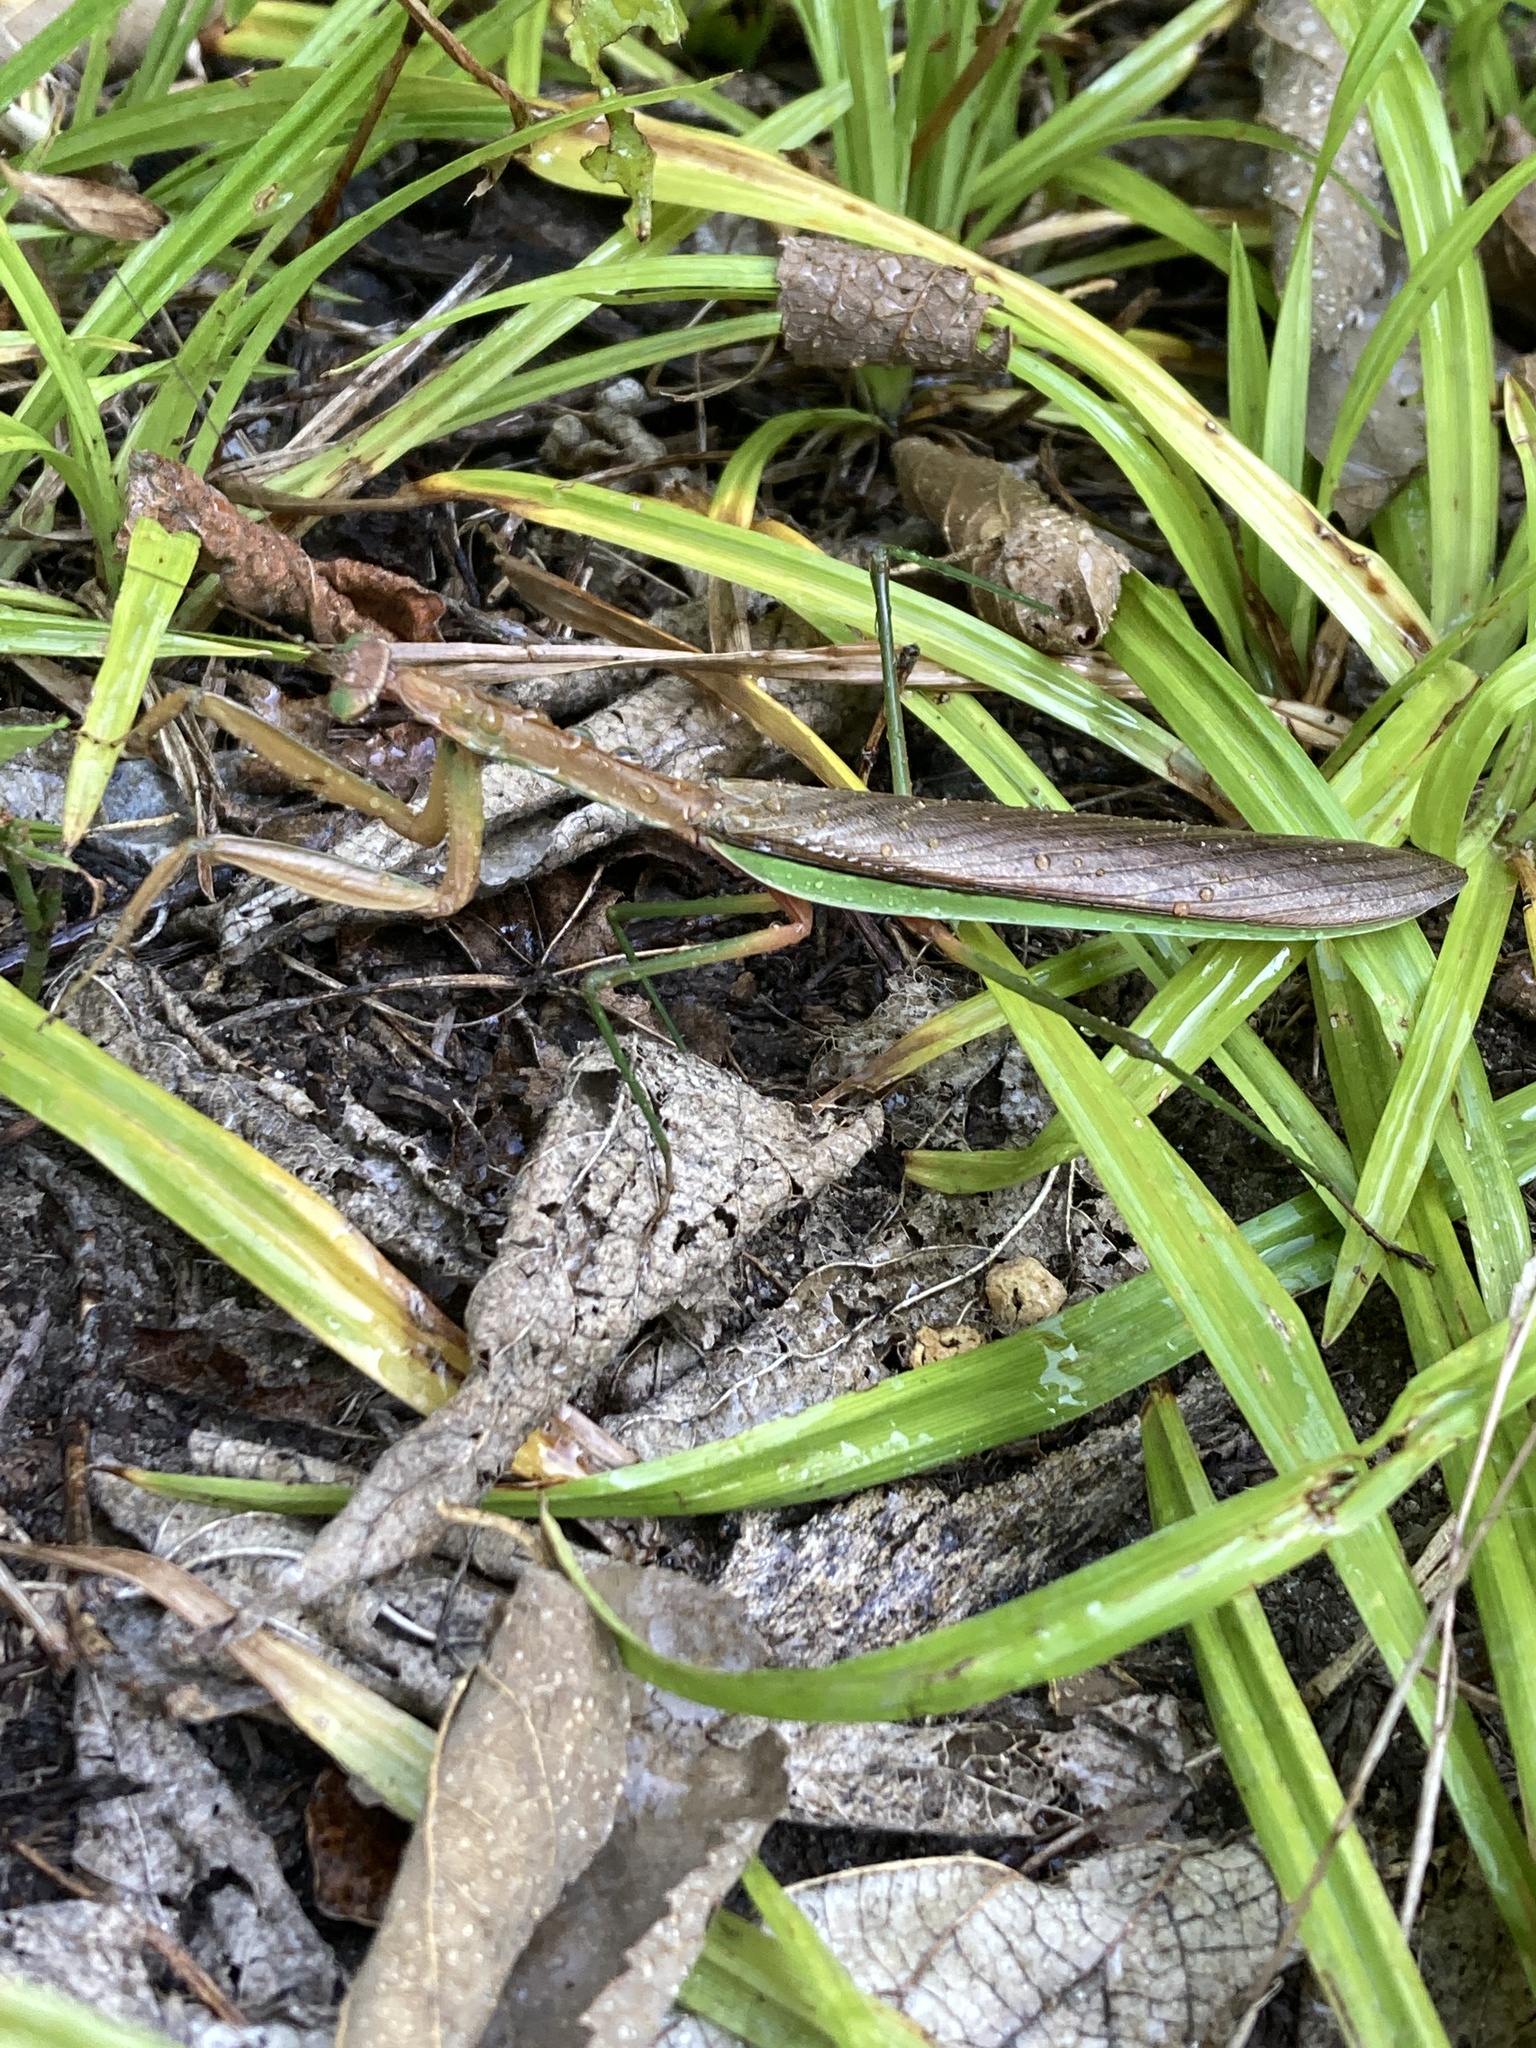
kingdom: Animalia
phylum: Arthropoda
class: Insecta
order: Mantodea
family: Mantidae
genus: Tenodera
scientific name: Tenodera sinensis
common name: Chinese mantis
